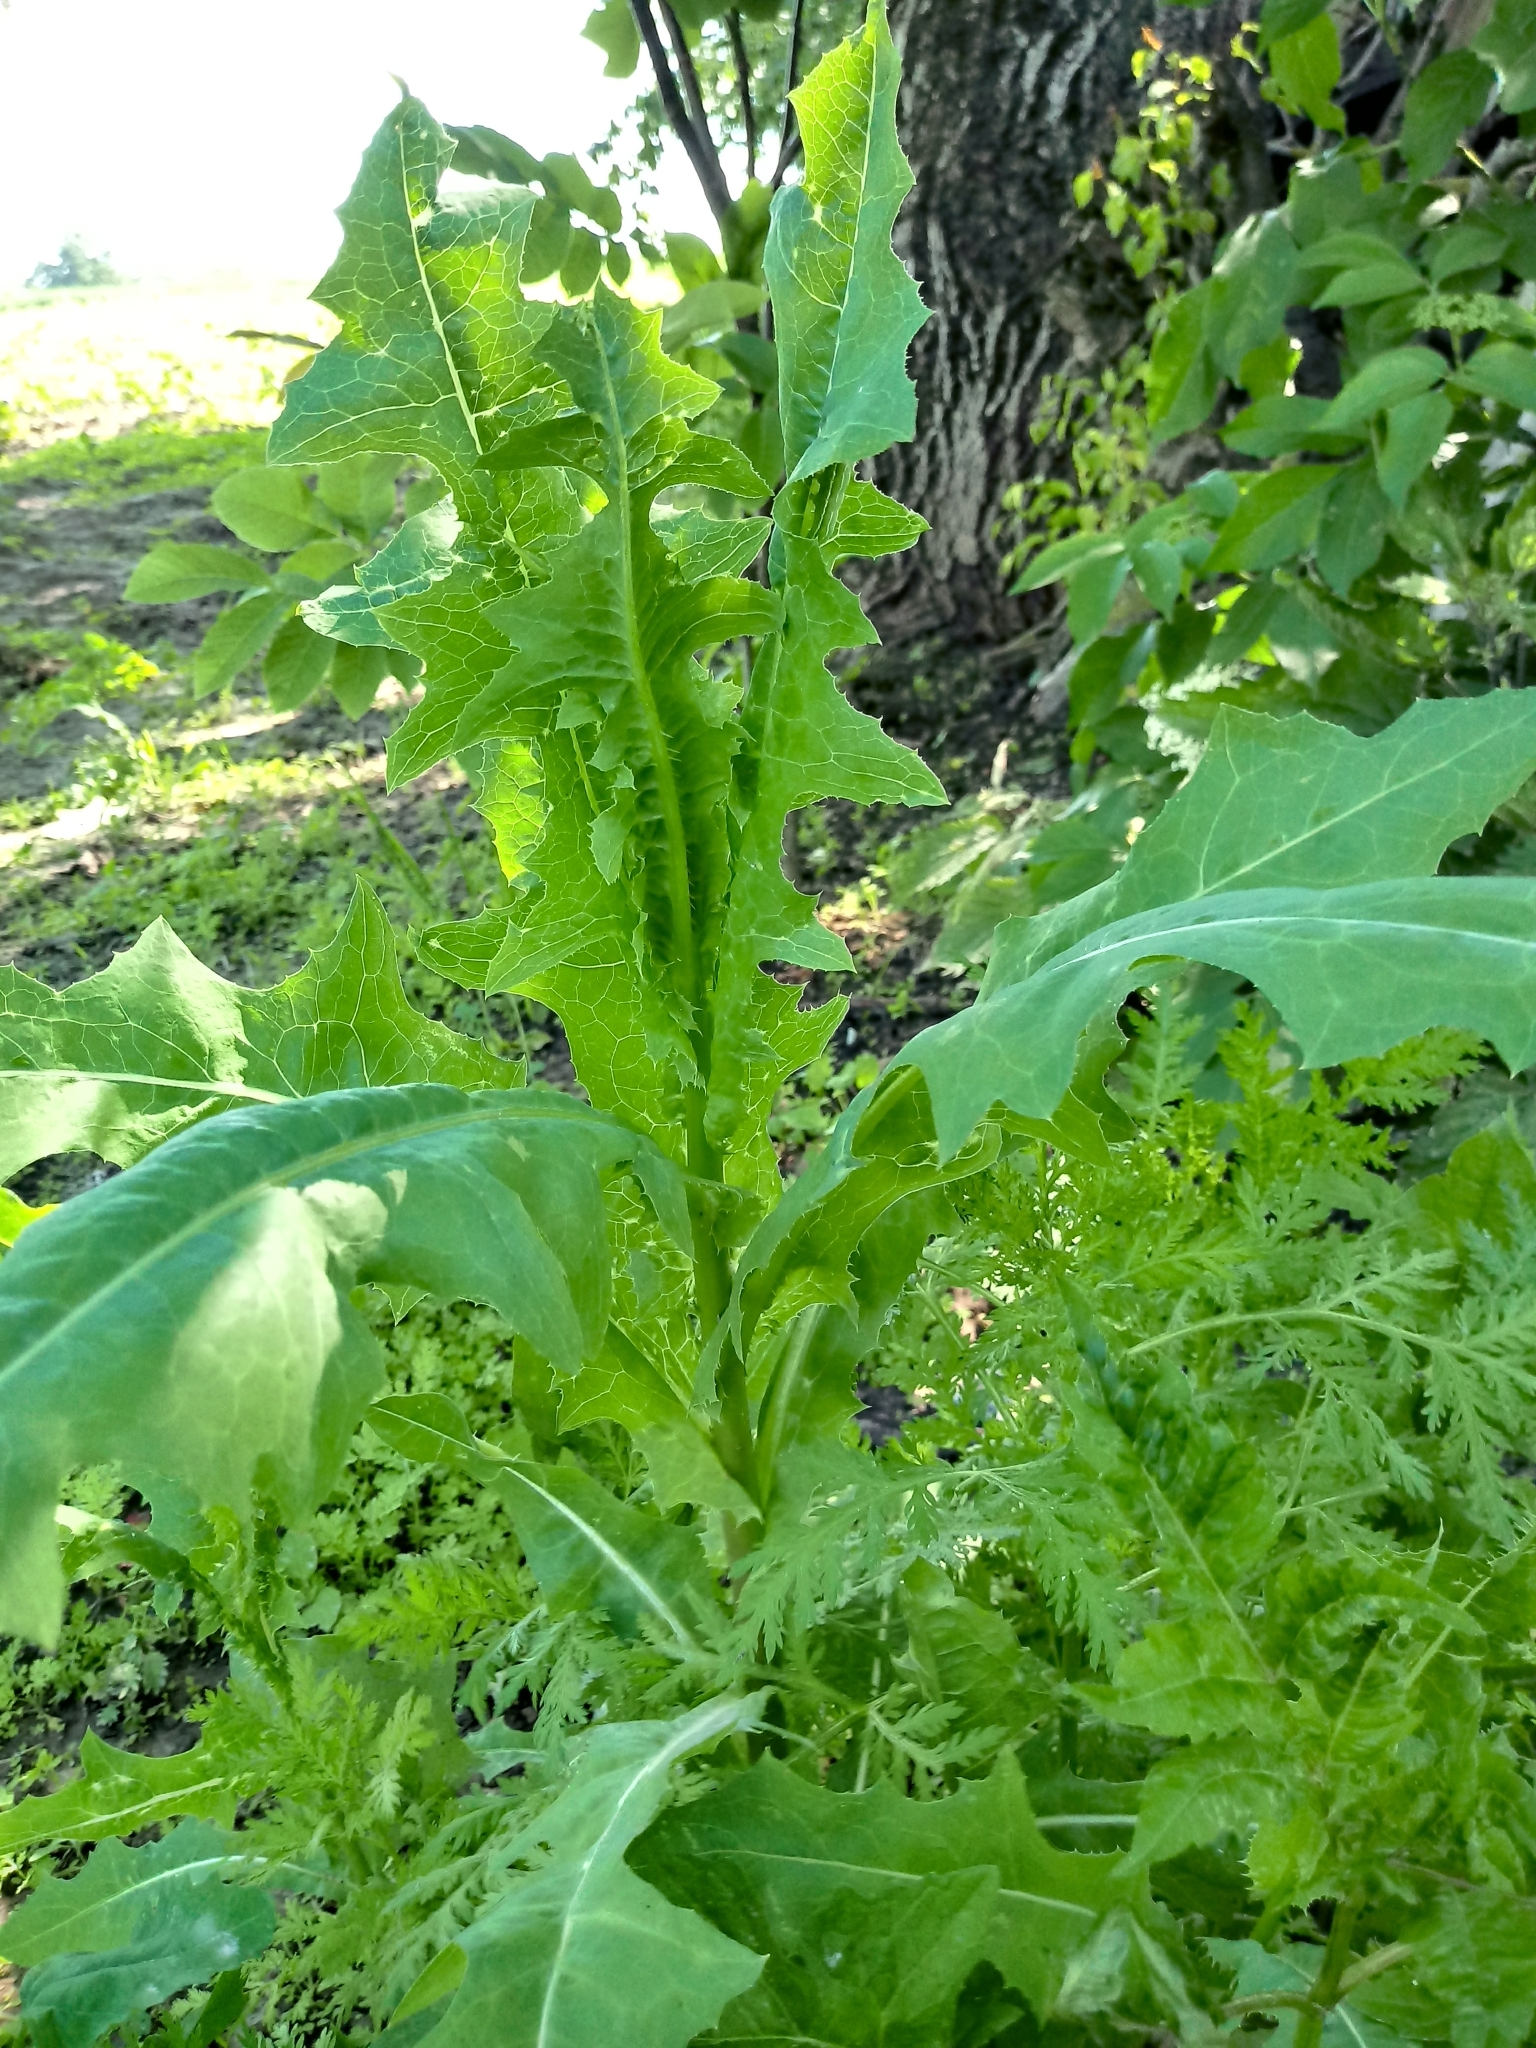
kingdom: Plantae
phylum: Tracheophyta
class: Magnoliopsida
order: Asterales
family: Asteraceae
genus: Lactuca
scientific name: Lactuca serriola
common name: Prickly lettuce
